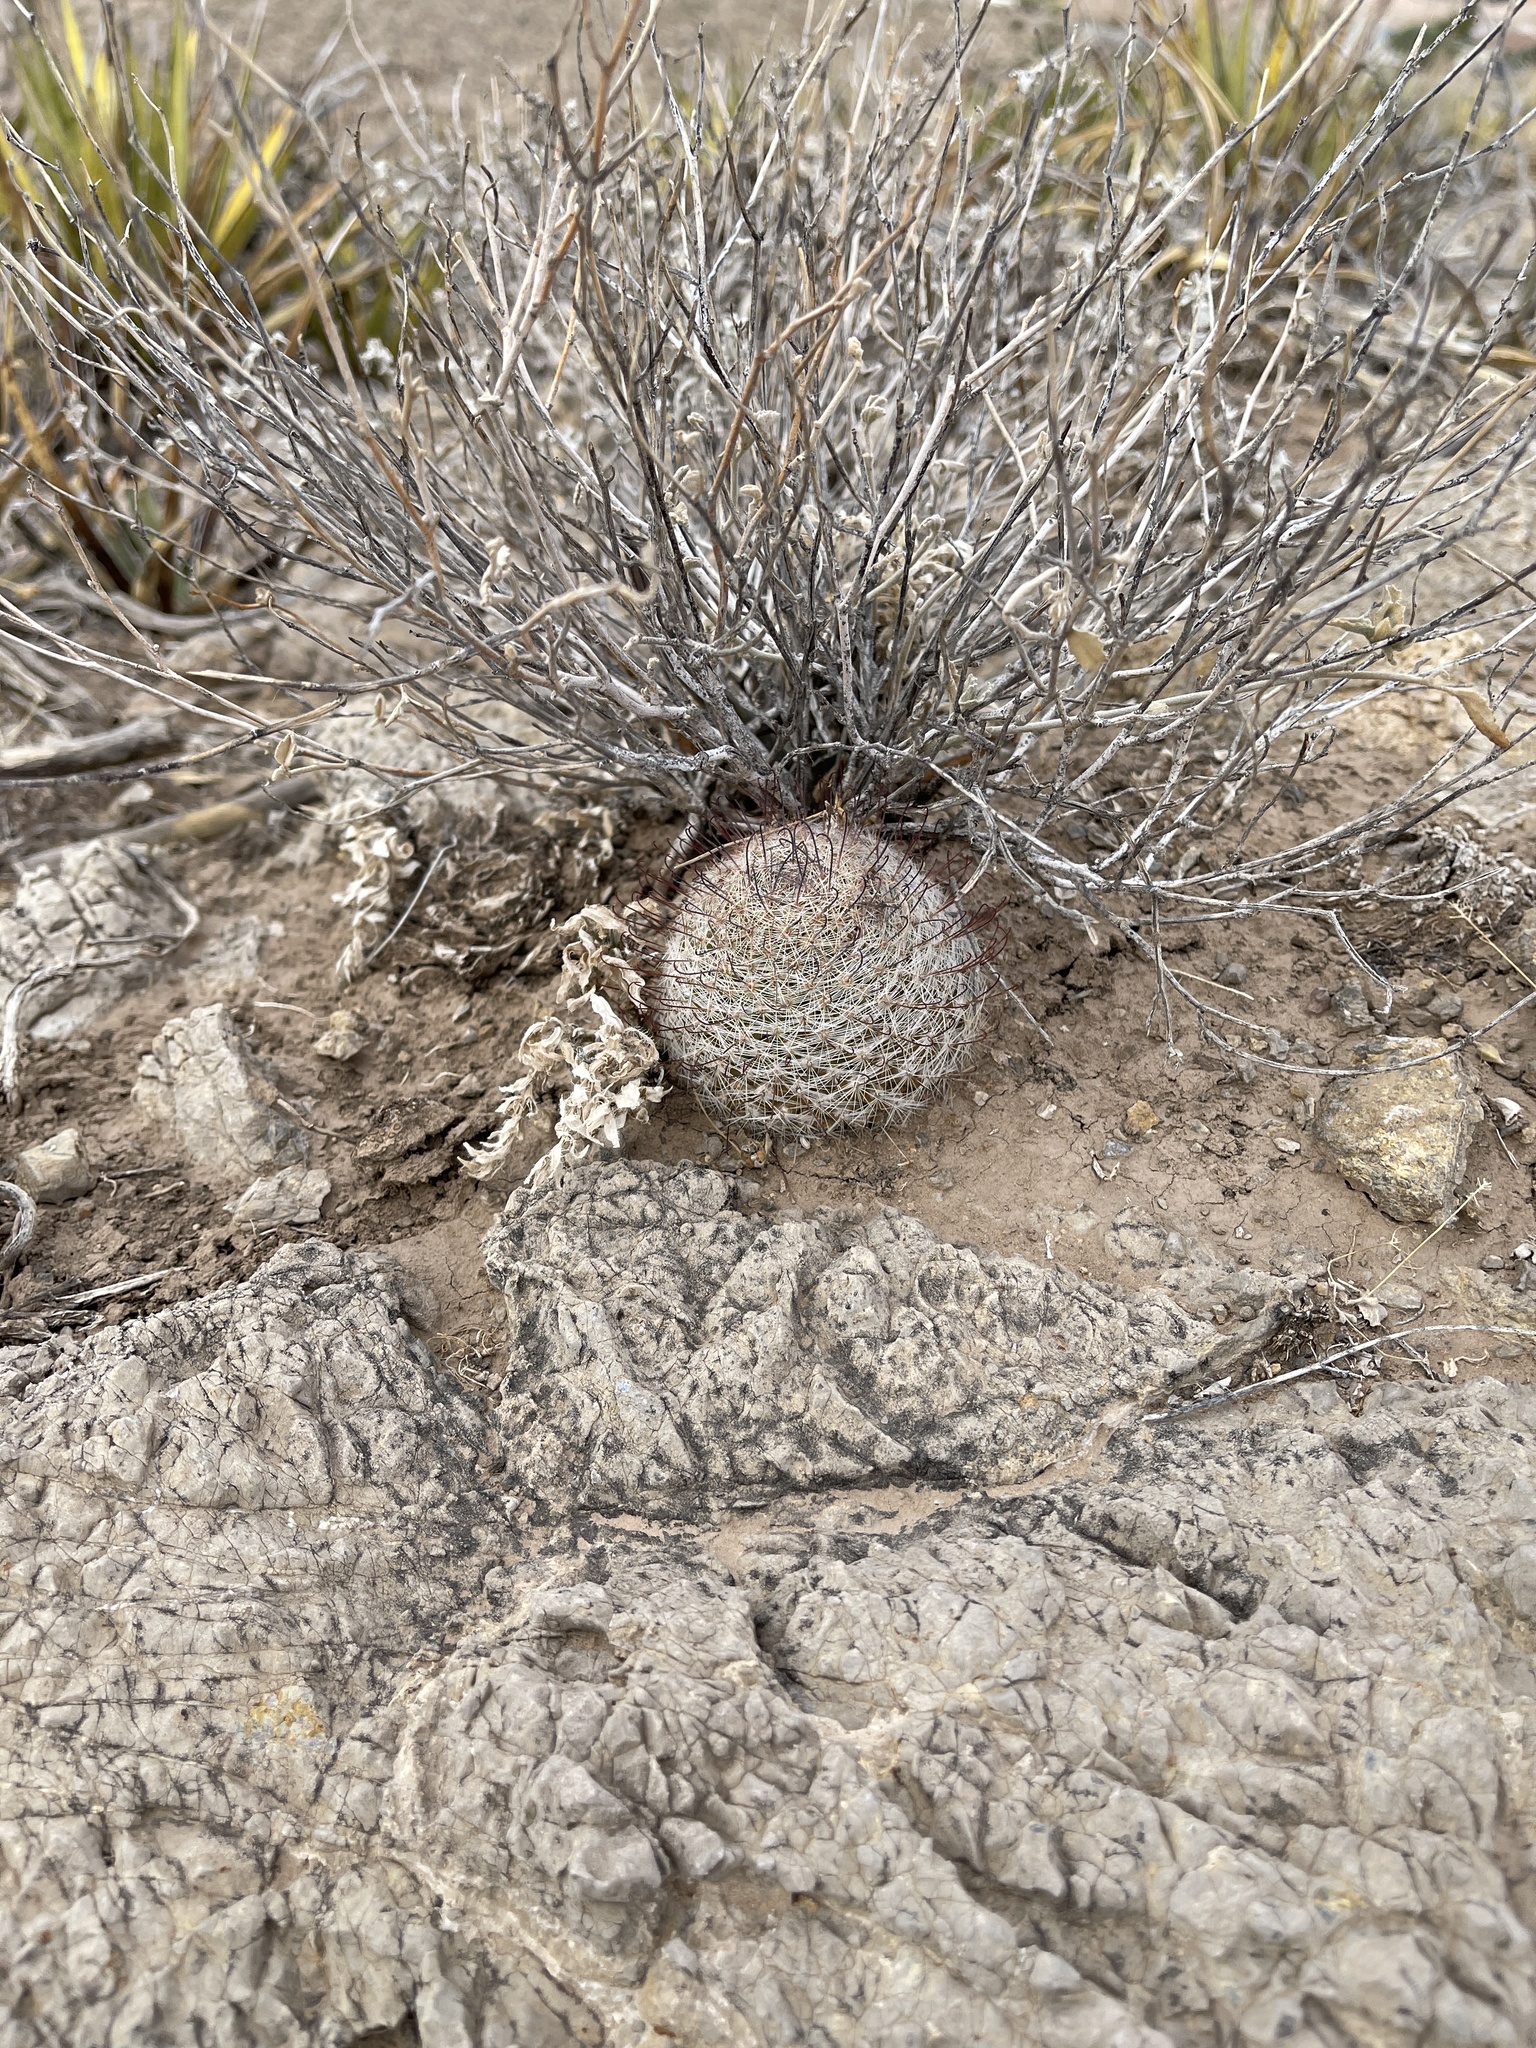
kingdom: Plantae
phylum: Tracheophyta
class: Magnoliopsida
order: Caryophyllales
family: Cactaceae
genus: Cochemiea
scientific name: Cochemiea grahamii
